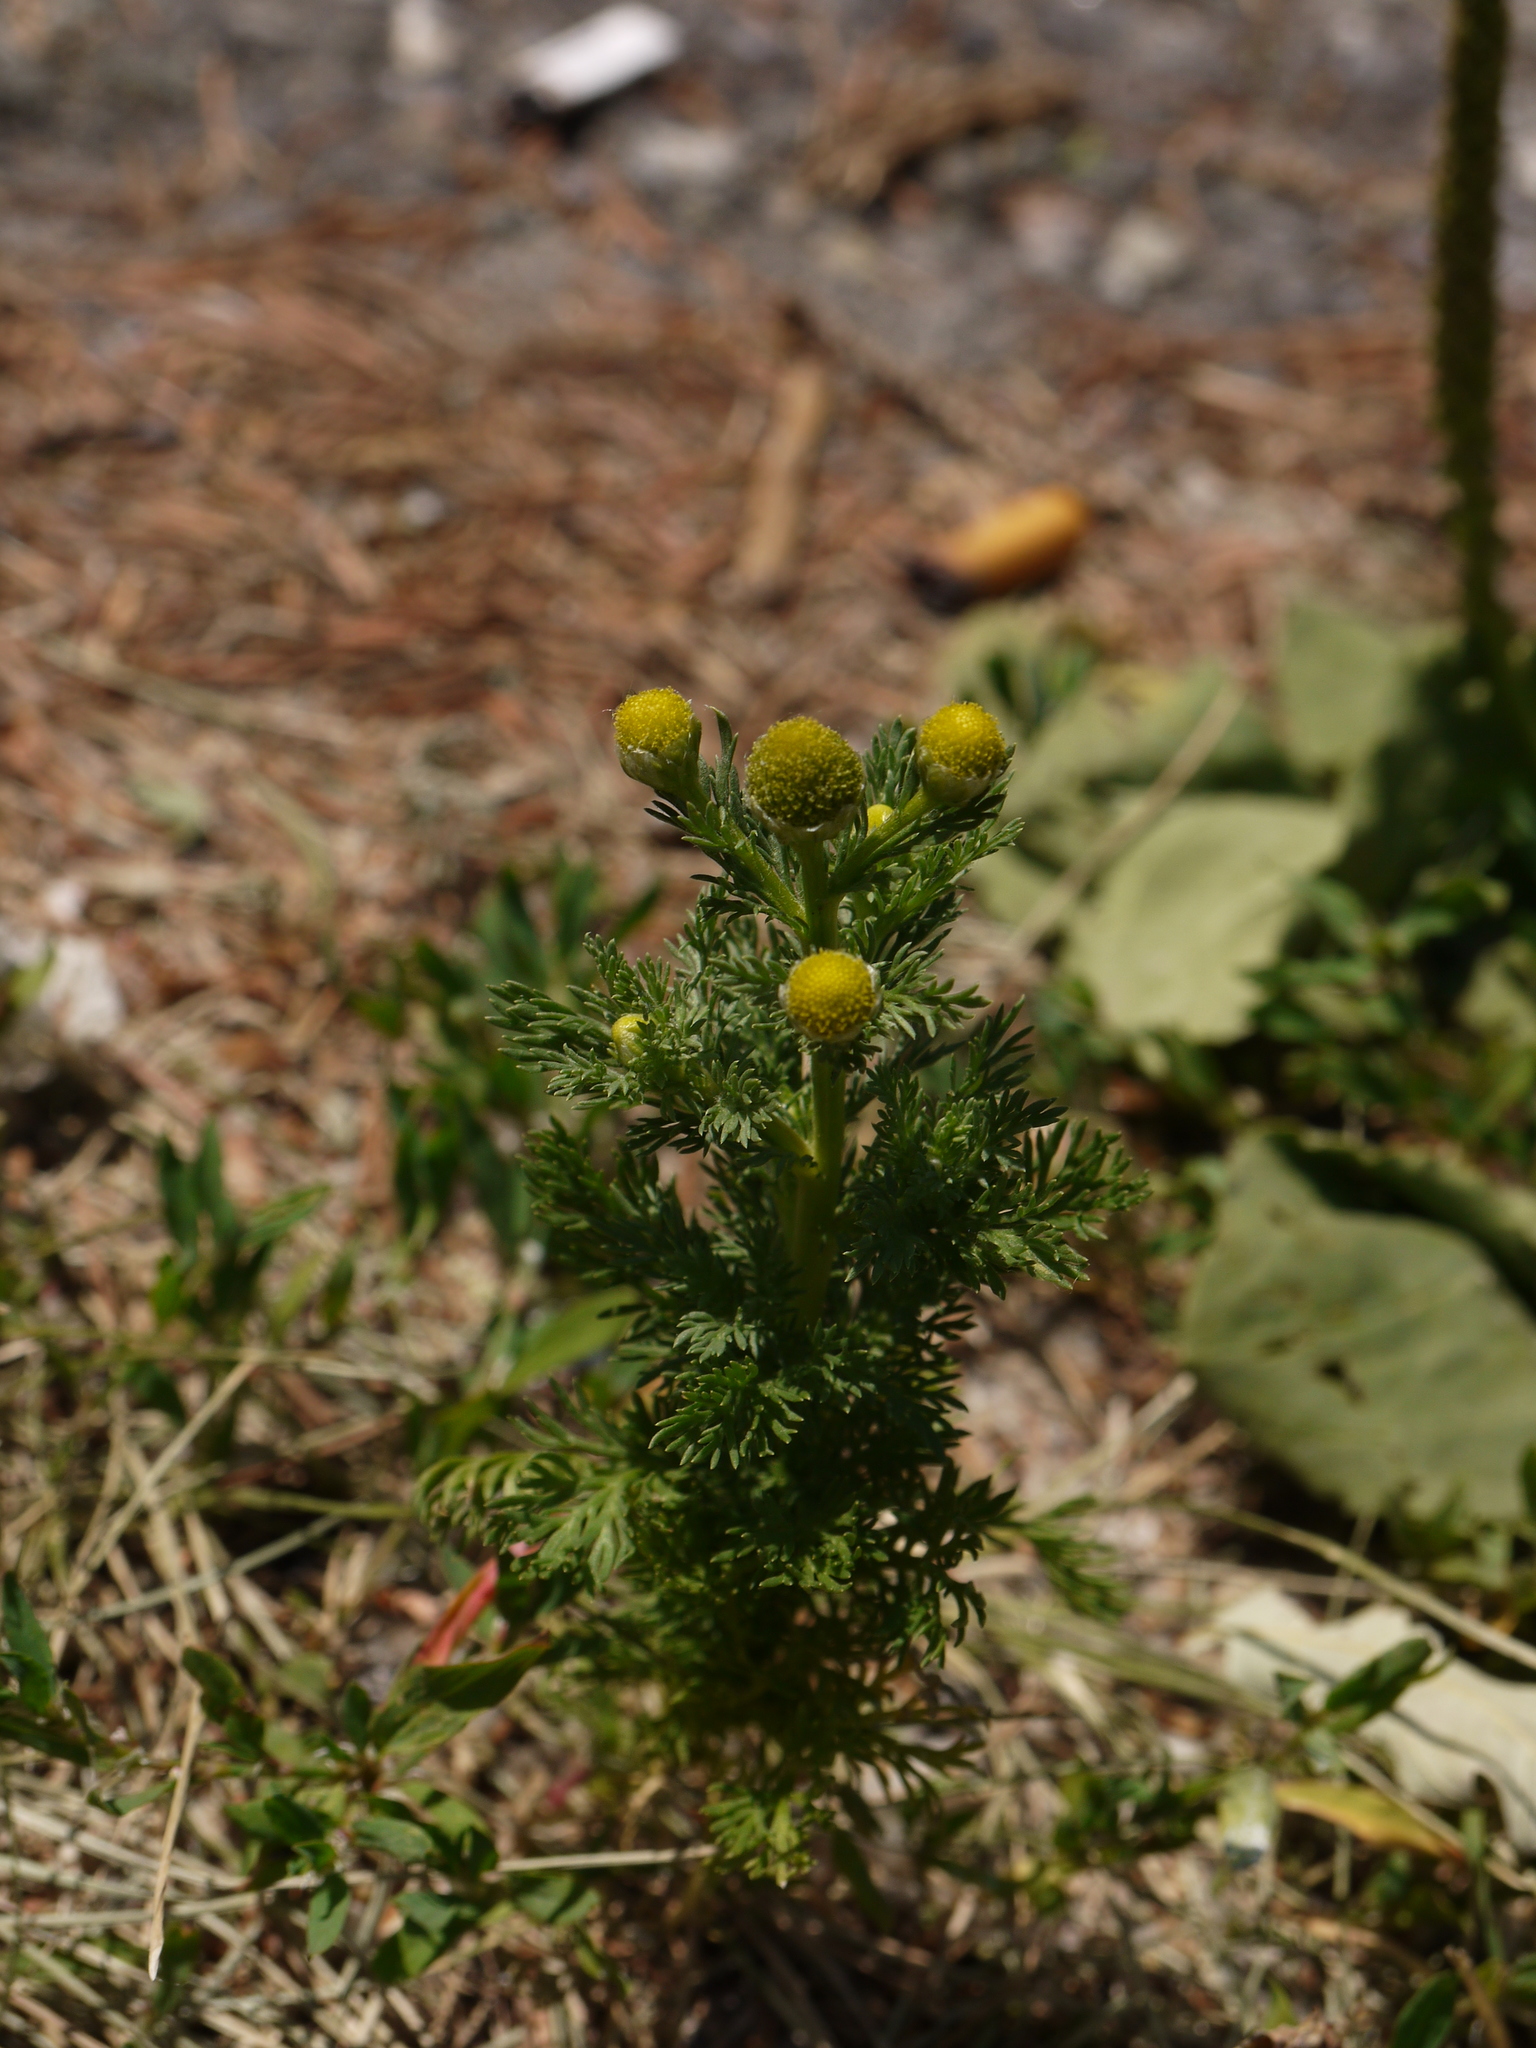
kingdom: Plantae
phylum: Tracheophyta
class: Magnoliopsida
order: Asterales
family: Asteraceae
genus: Matricaria
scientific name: Matricaria discoidea
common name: Disc mayweed
